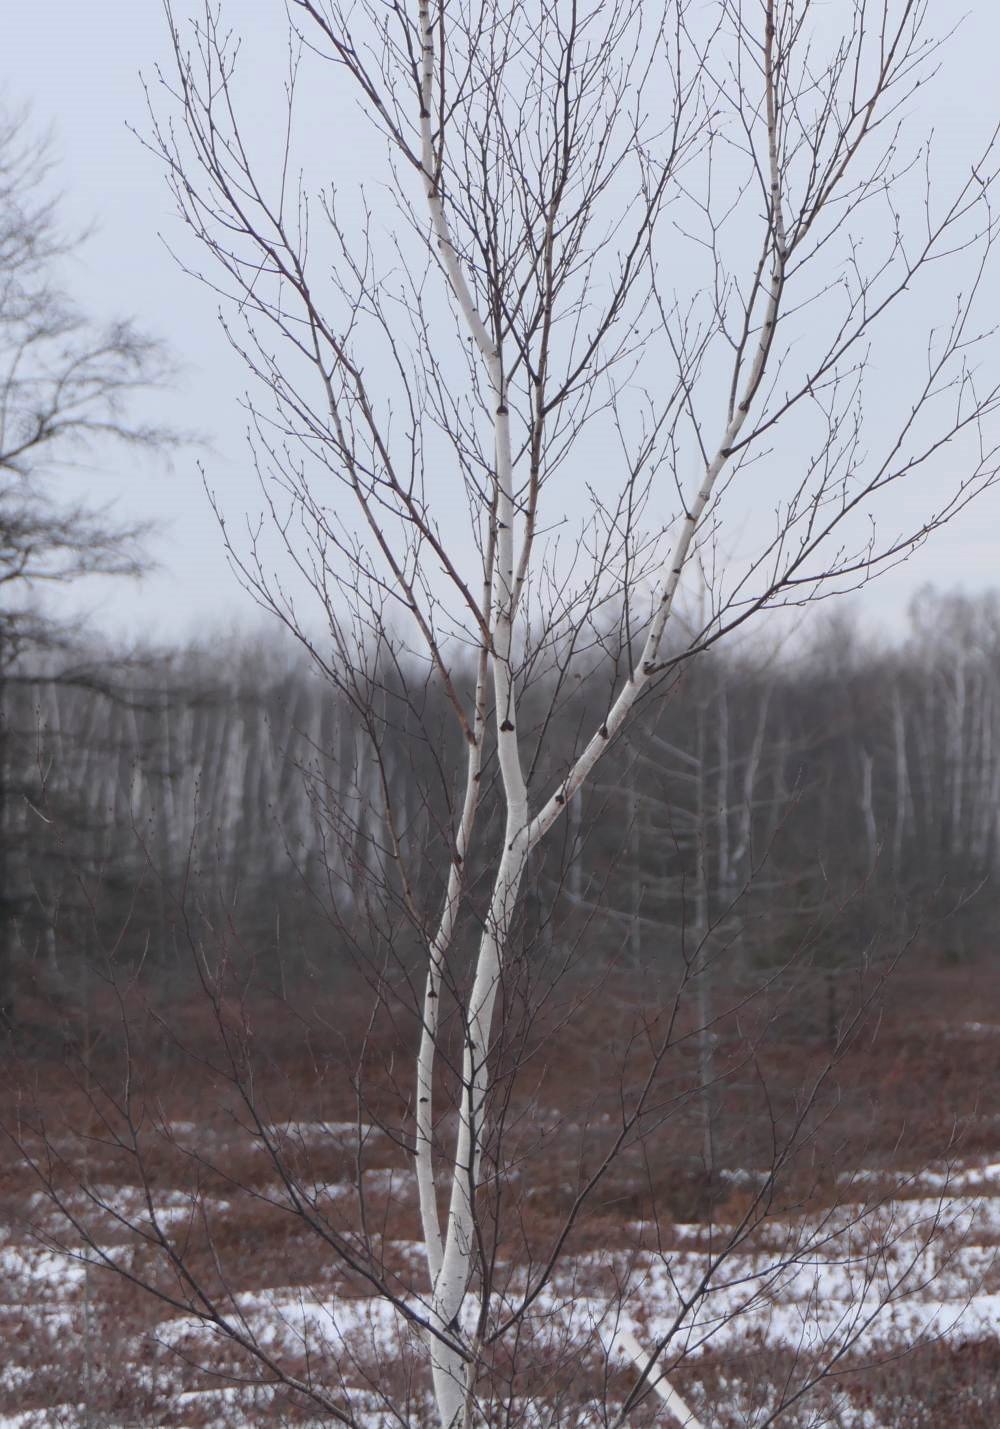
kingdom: Plantae
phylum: Tracheophyta
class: Magnoliopsida
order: Fagales
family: Betulaceae
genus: Betula
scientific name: Betula papyrifera
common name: Paper birch
